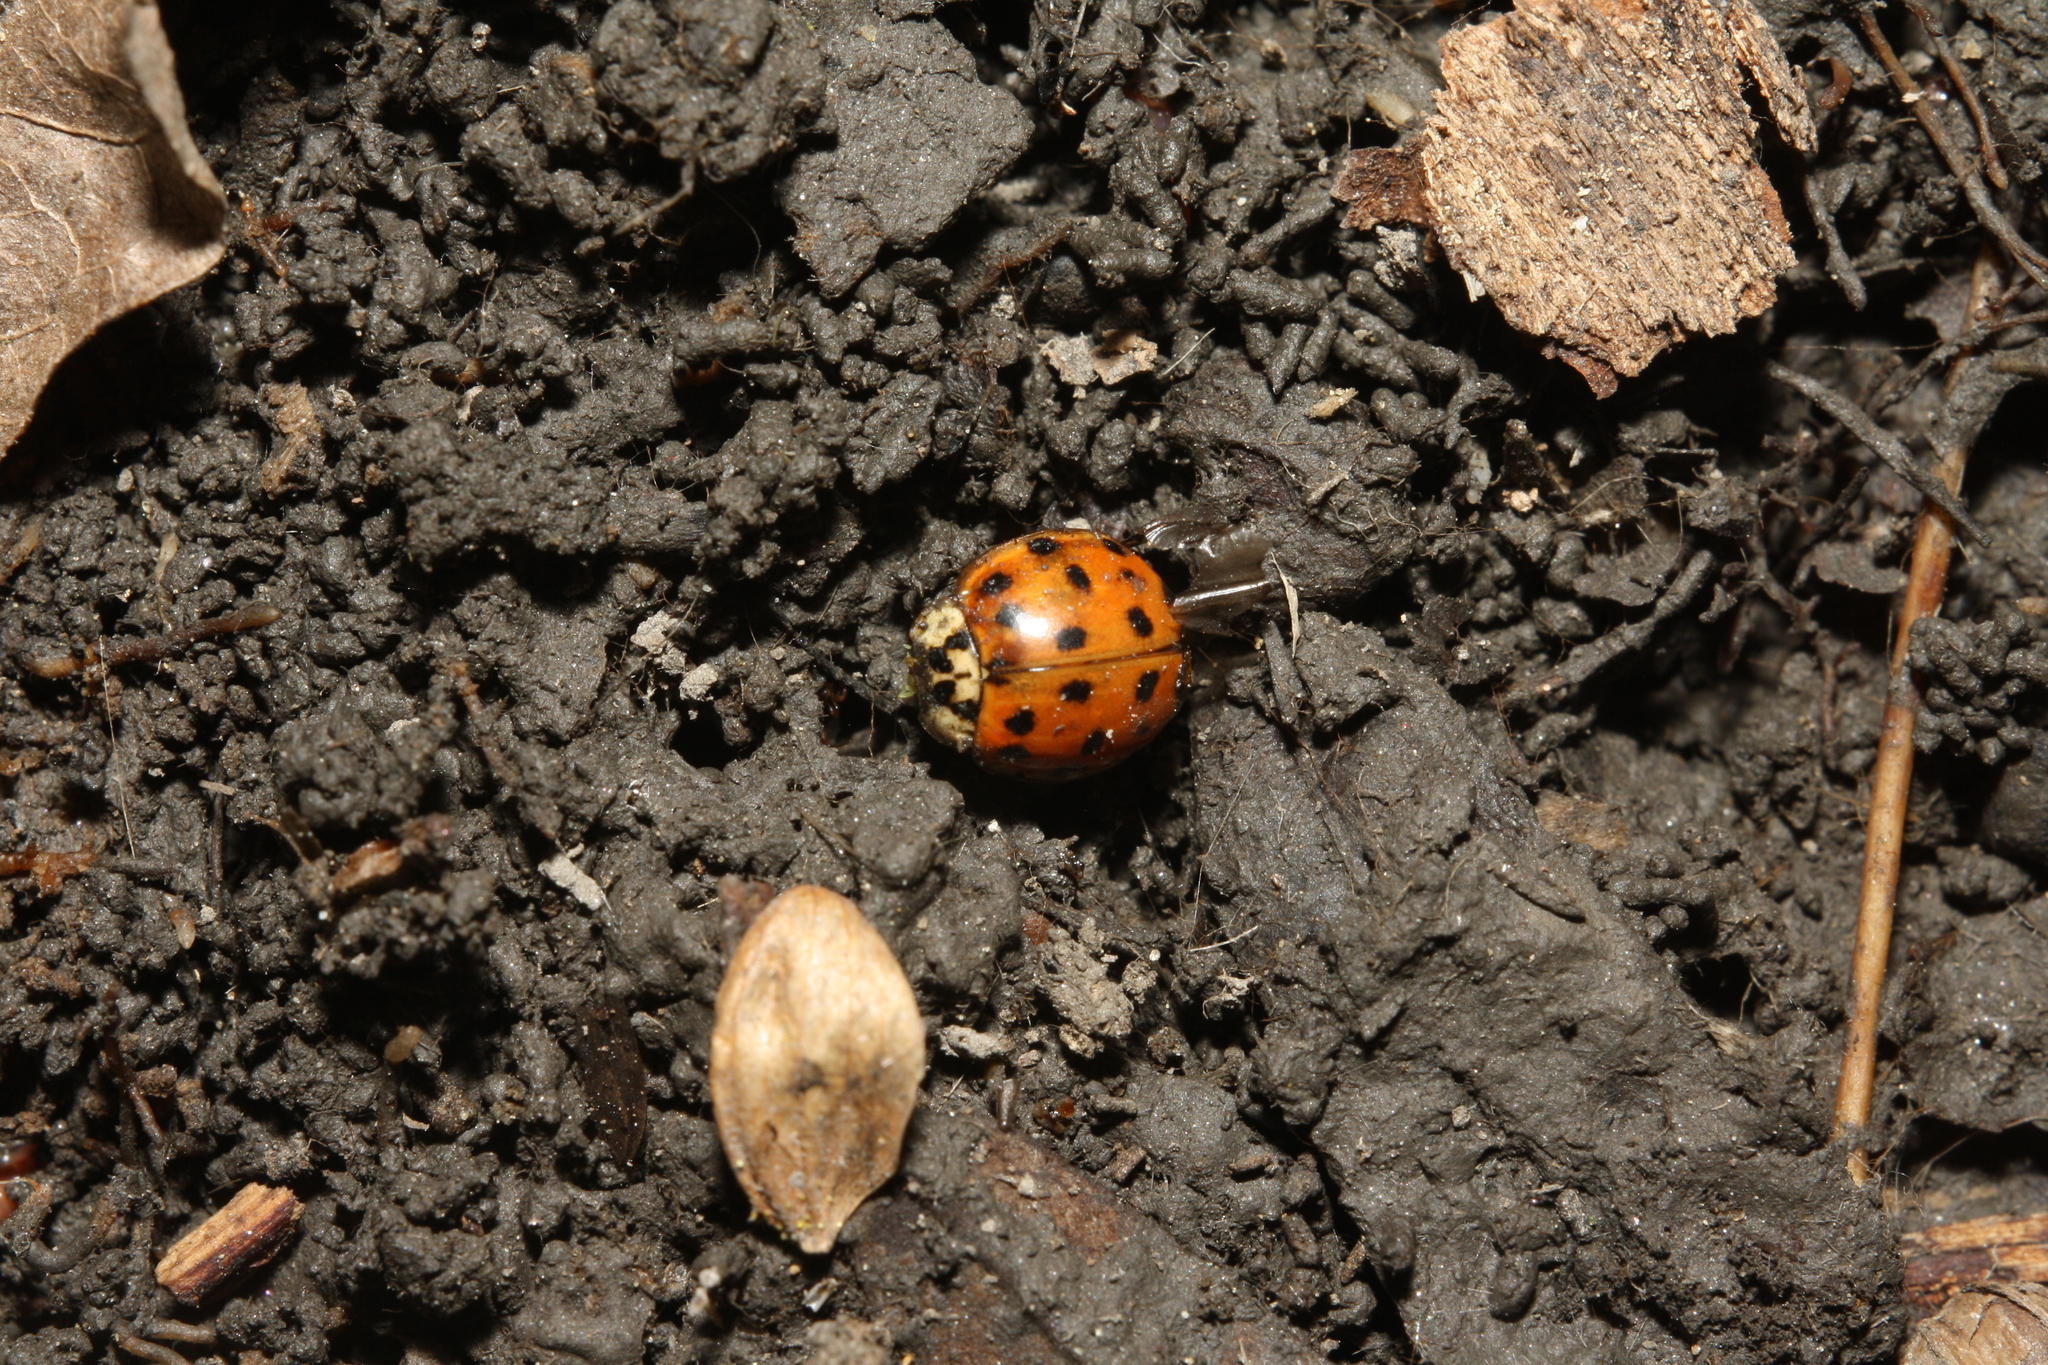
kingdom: Animalia
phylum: Arthropoda
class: Insecta
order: Coleoptera
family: Coccinellidae
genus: Harmonia
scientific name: Harmonia axyridis
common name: Harlequin ladybird
